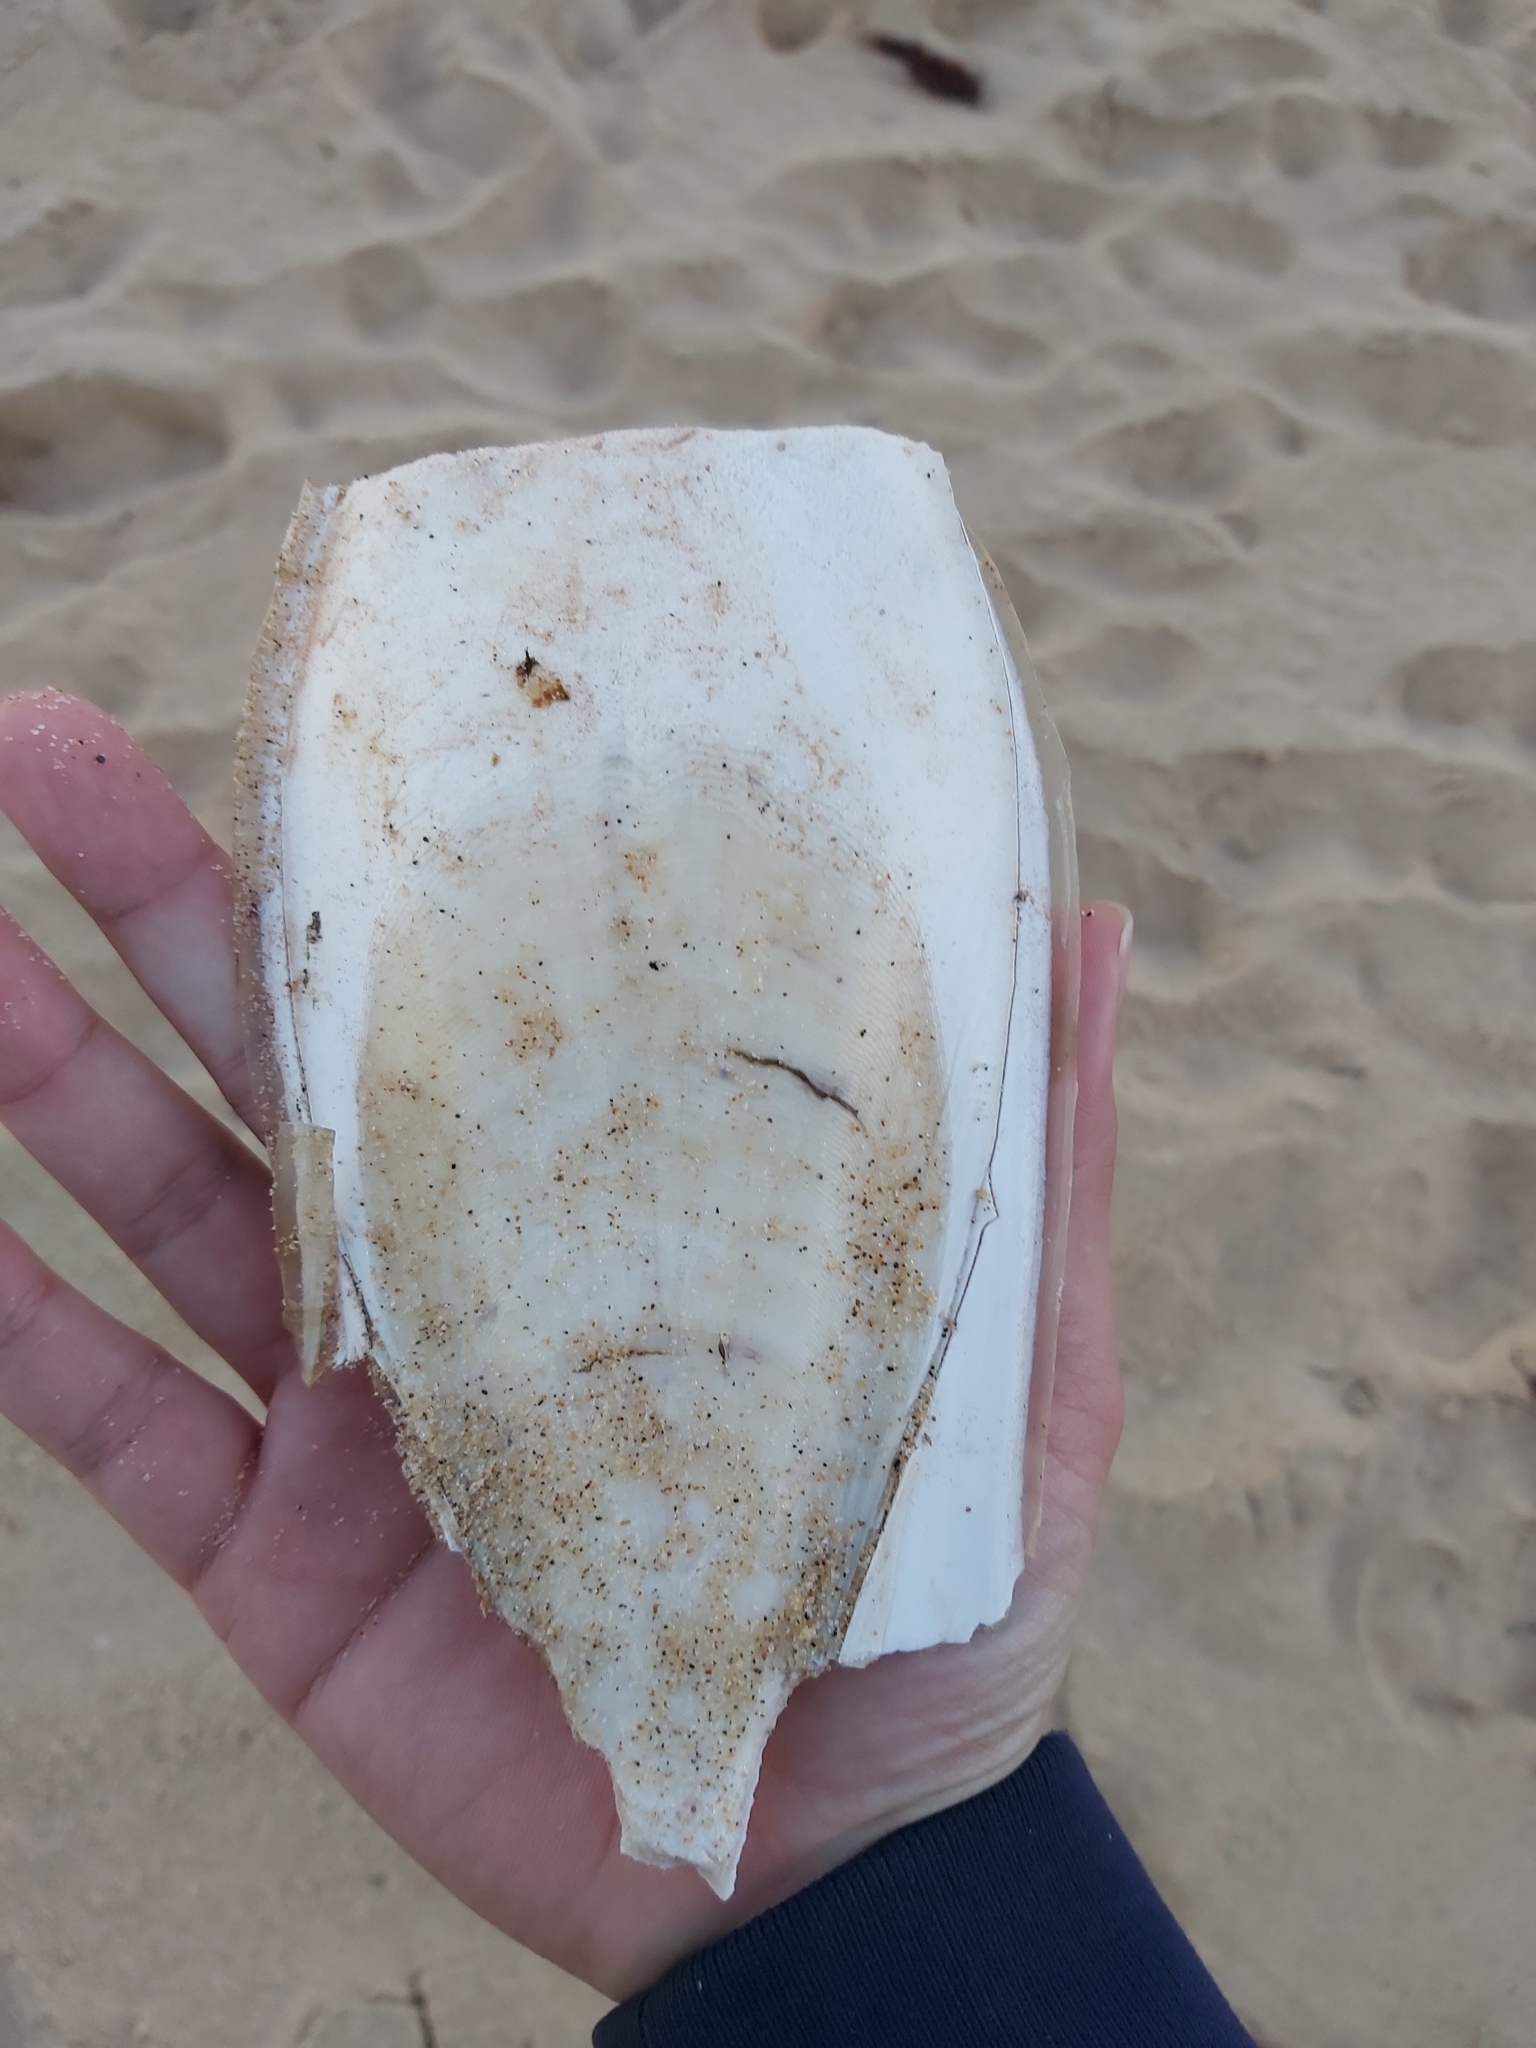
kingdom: Animalia
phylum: Mollusca
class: Cephalopoda
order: Sepiida
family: Sepiidae
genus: Ascarosepion
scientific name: Ascarosepion apama
